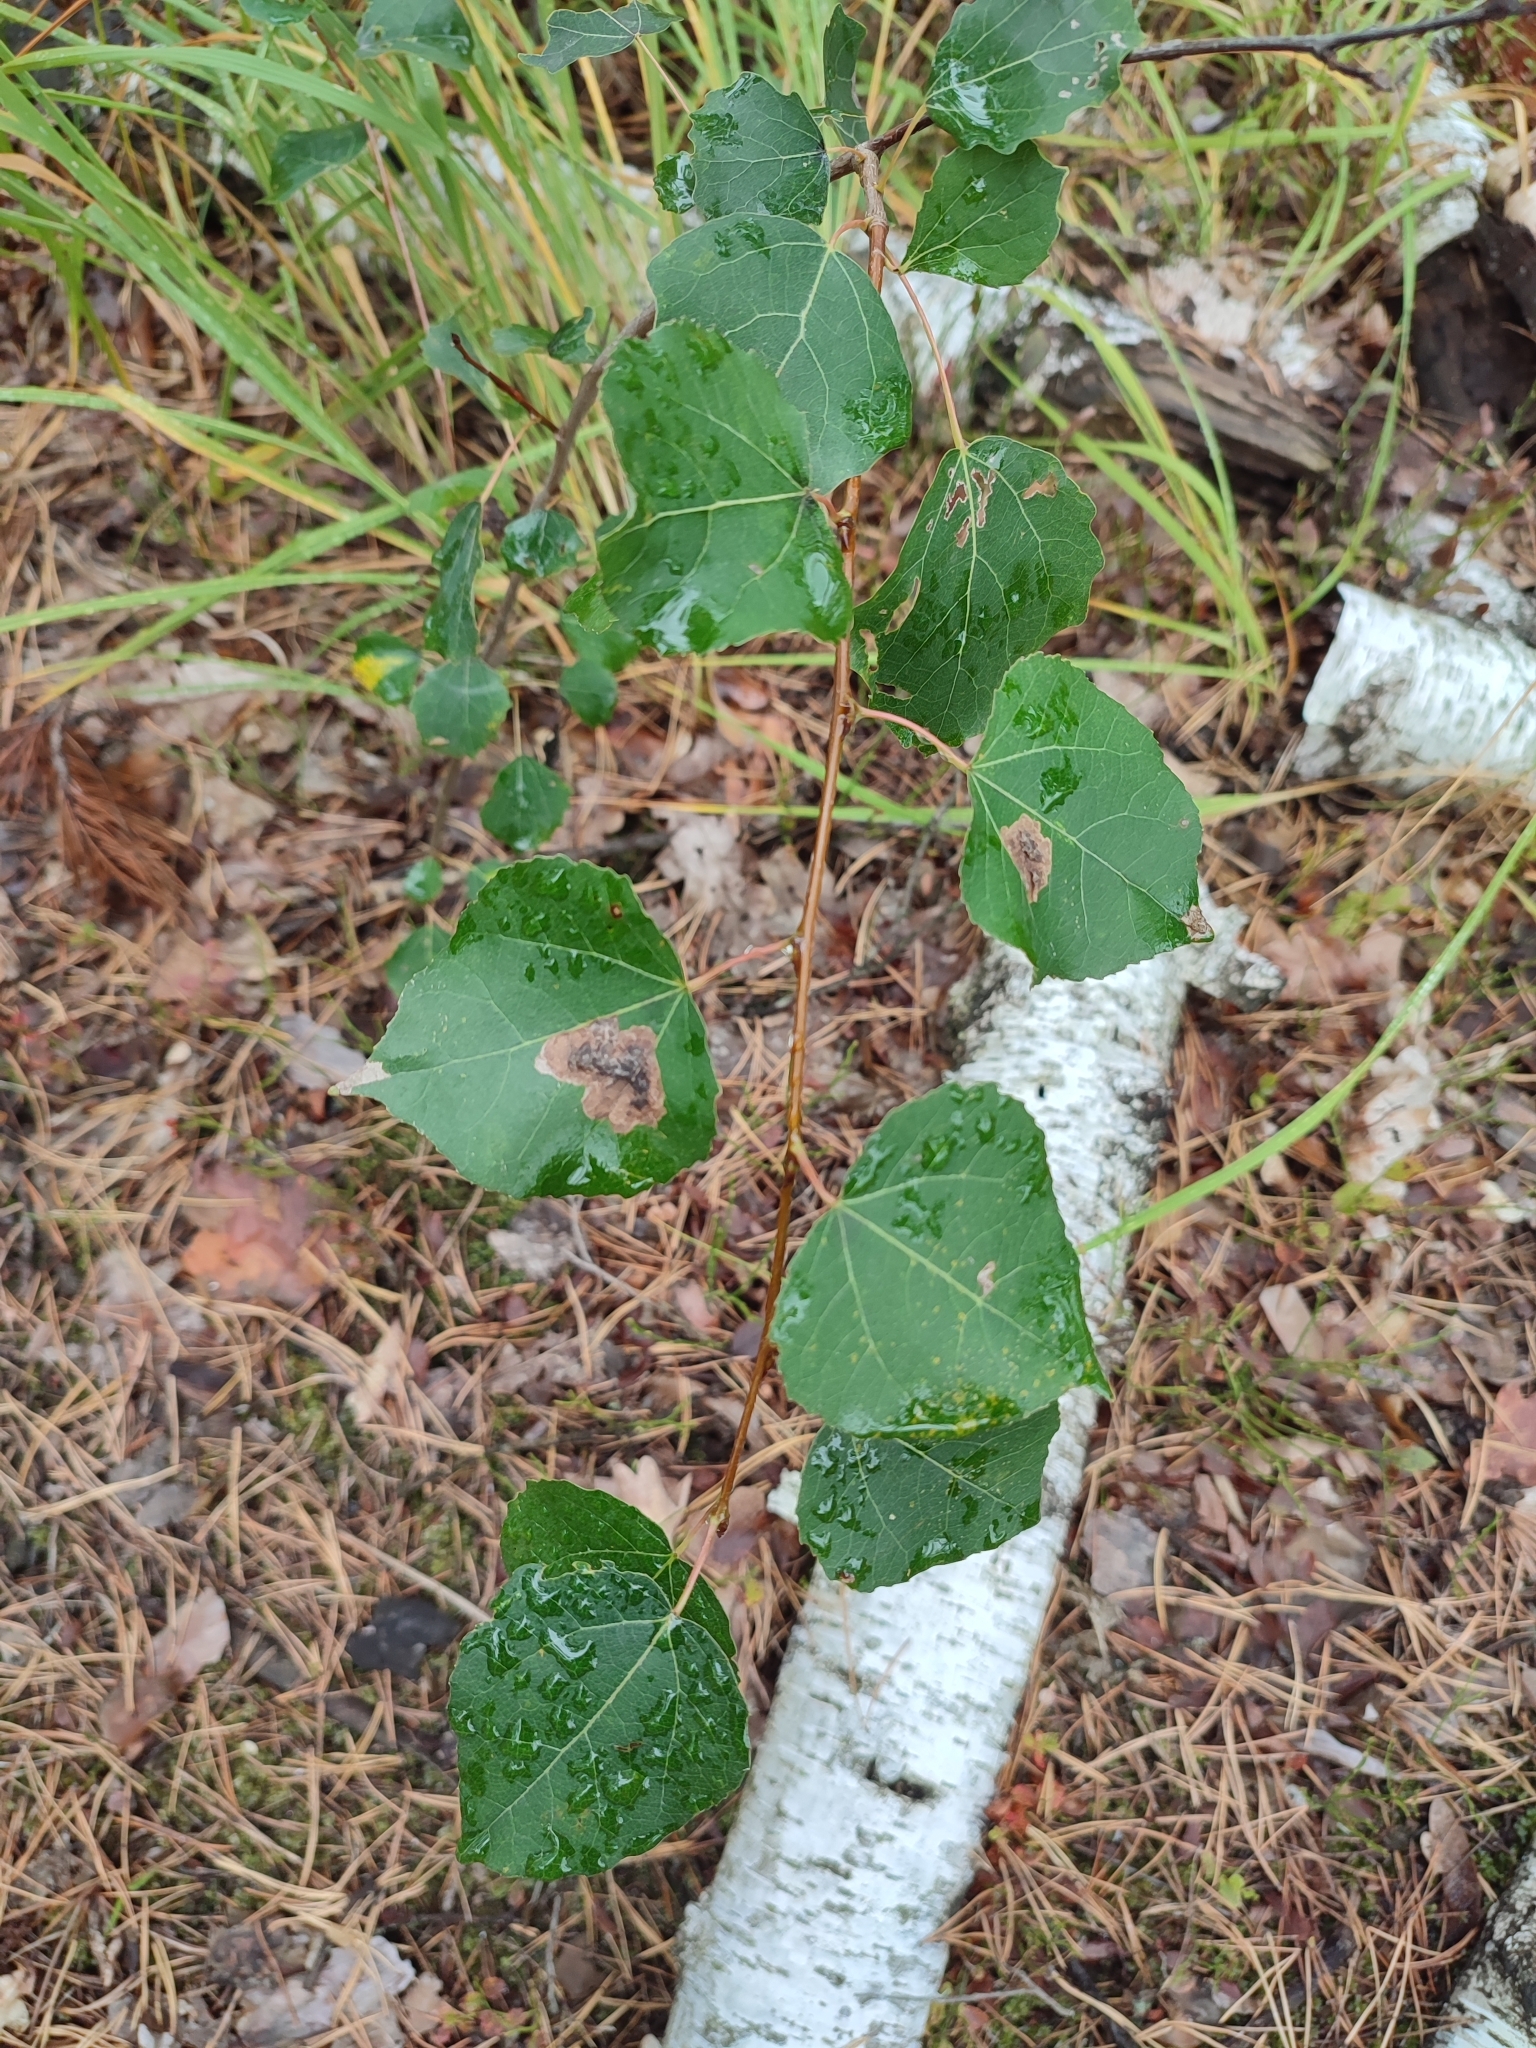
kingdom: Plantae
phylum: Tracheophyta
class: Magnoliopsida
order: Malpighiales
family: Salicaceae
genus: Populus
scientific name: Populus tremula
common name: European aspen
